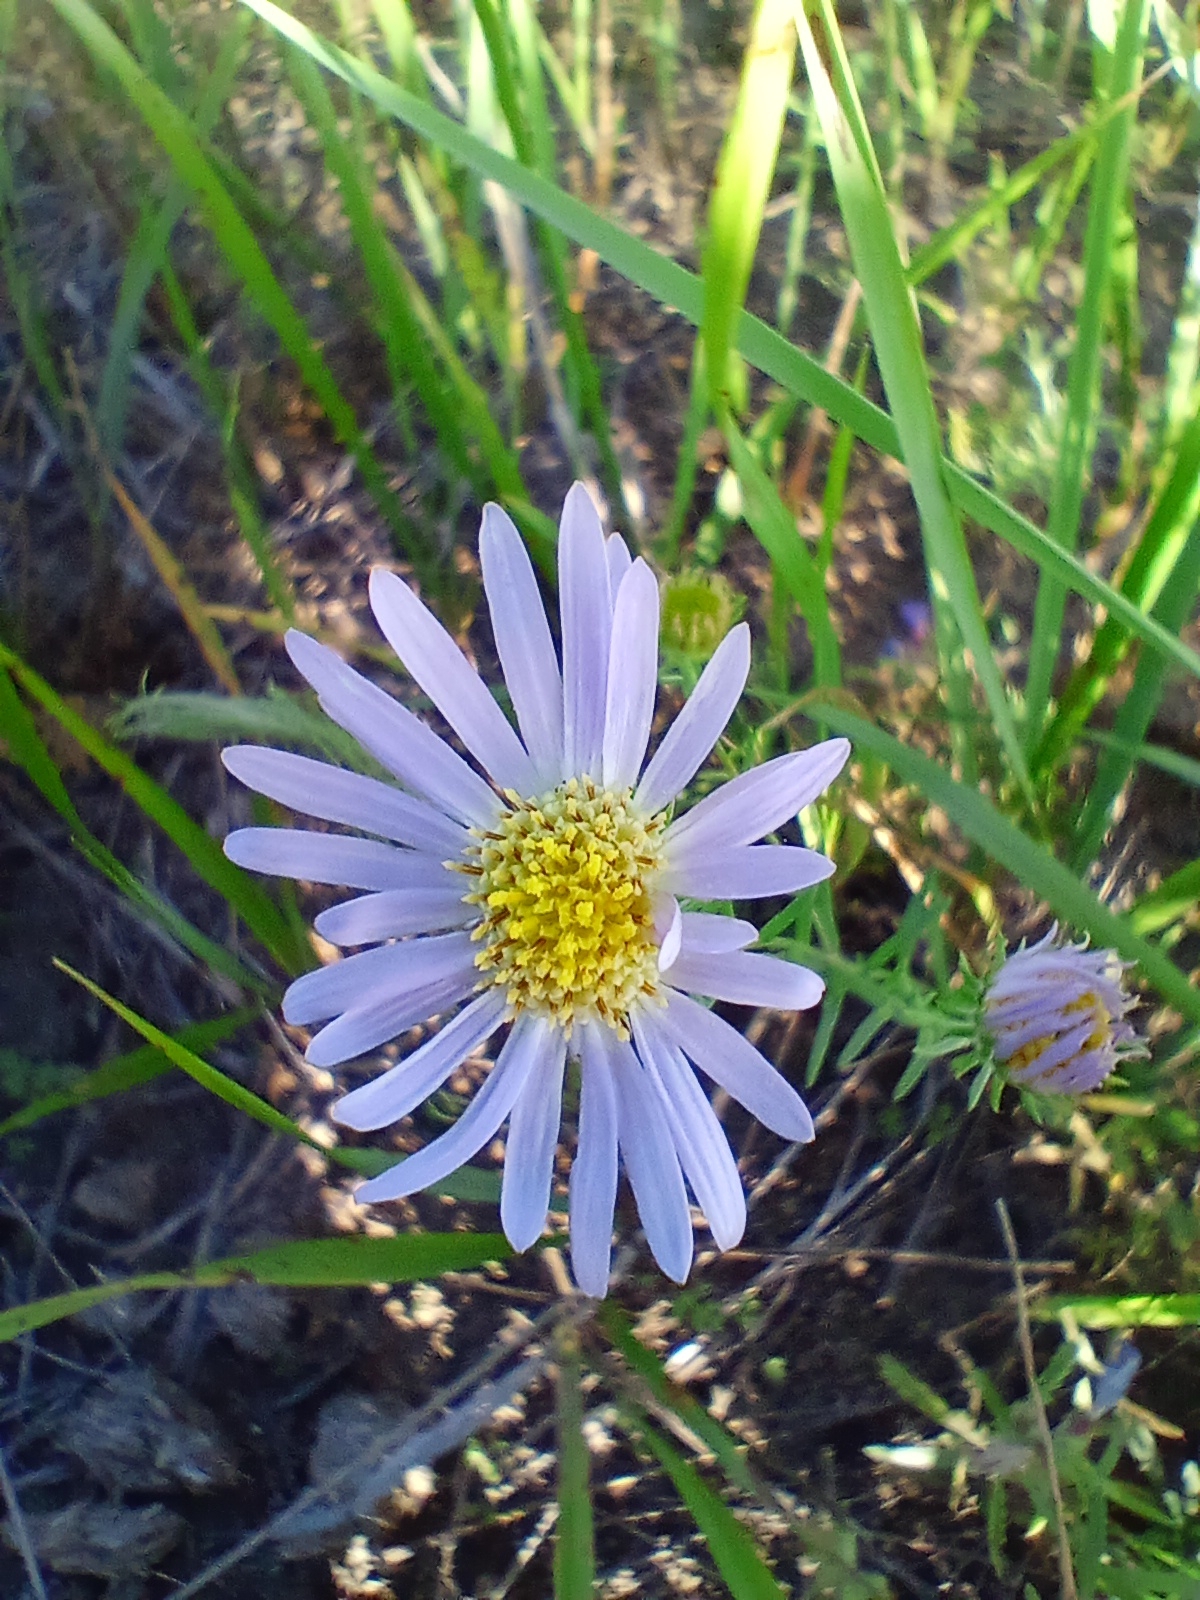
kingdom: Plantae
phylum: Tracheophyta
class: Magnoliopsida
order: Asterales
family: Asteraceae
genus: Aster
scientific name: Aster biennis
